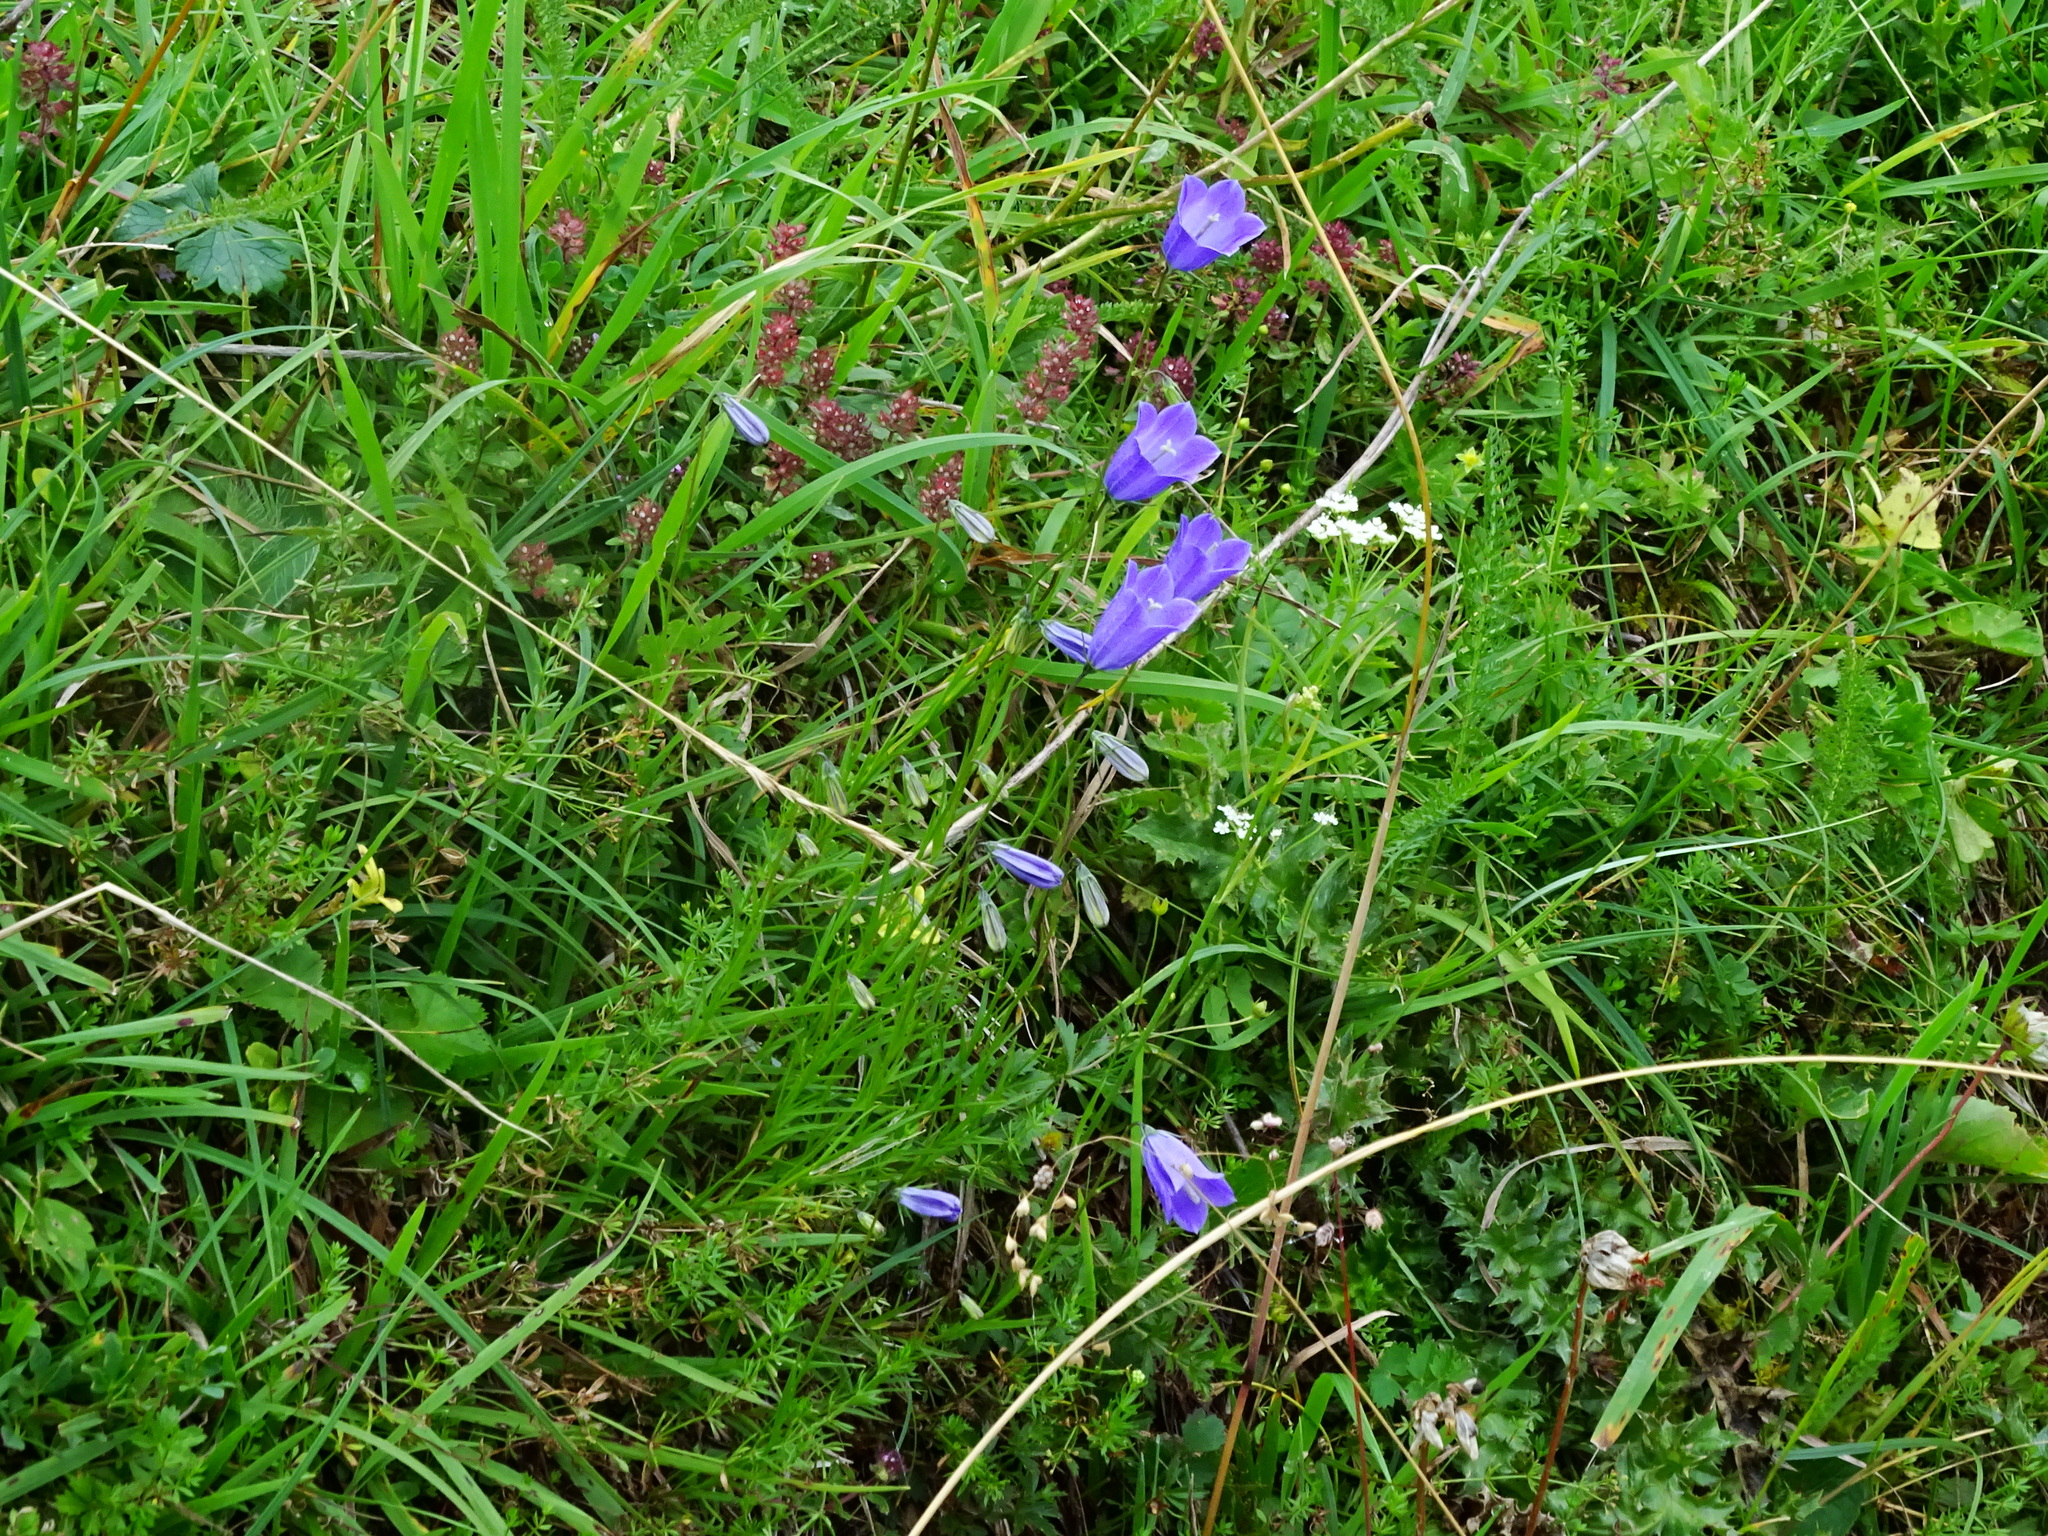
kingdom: Plantae
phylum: Tracheophyta
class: Magnoliopsida
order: Asterales
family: Campanulaceae
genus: Campanula
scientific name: Campanula
